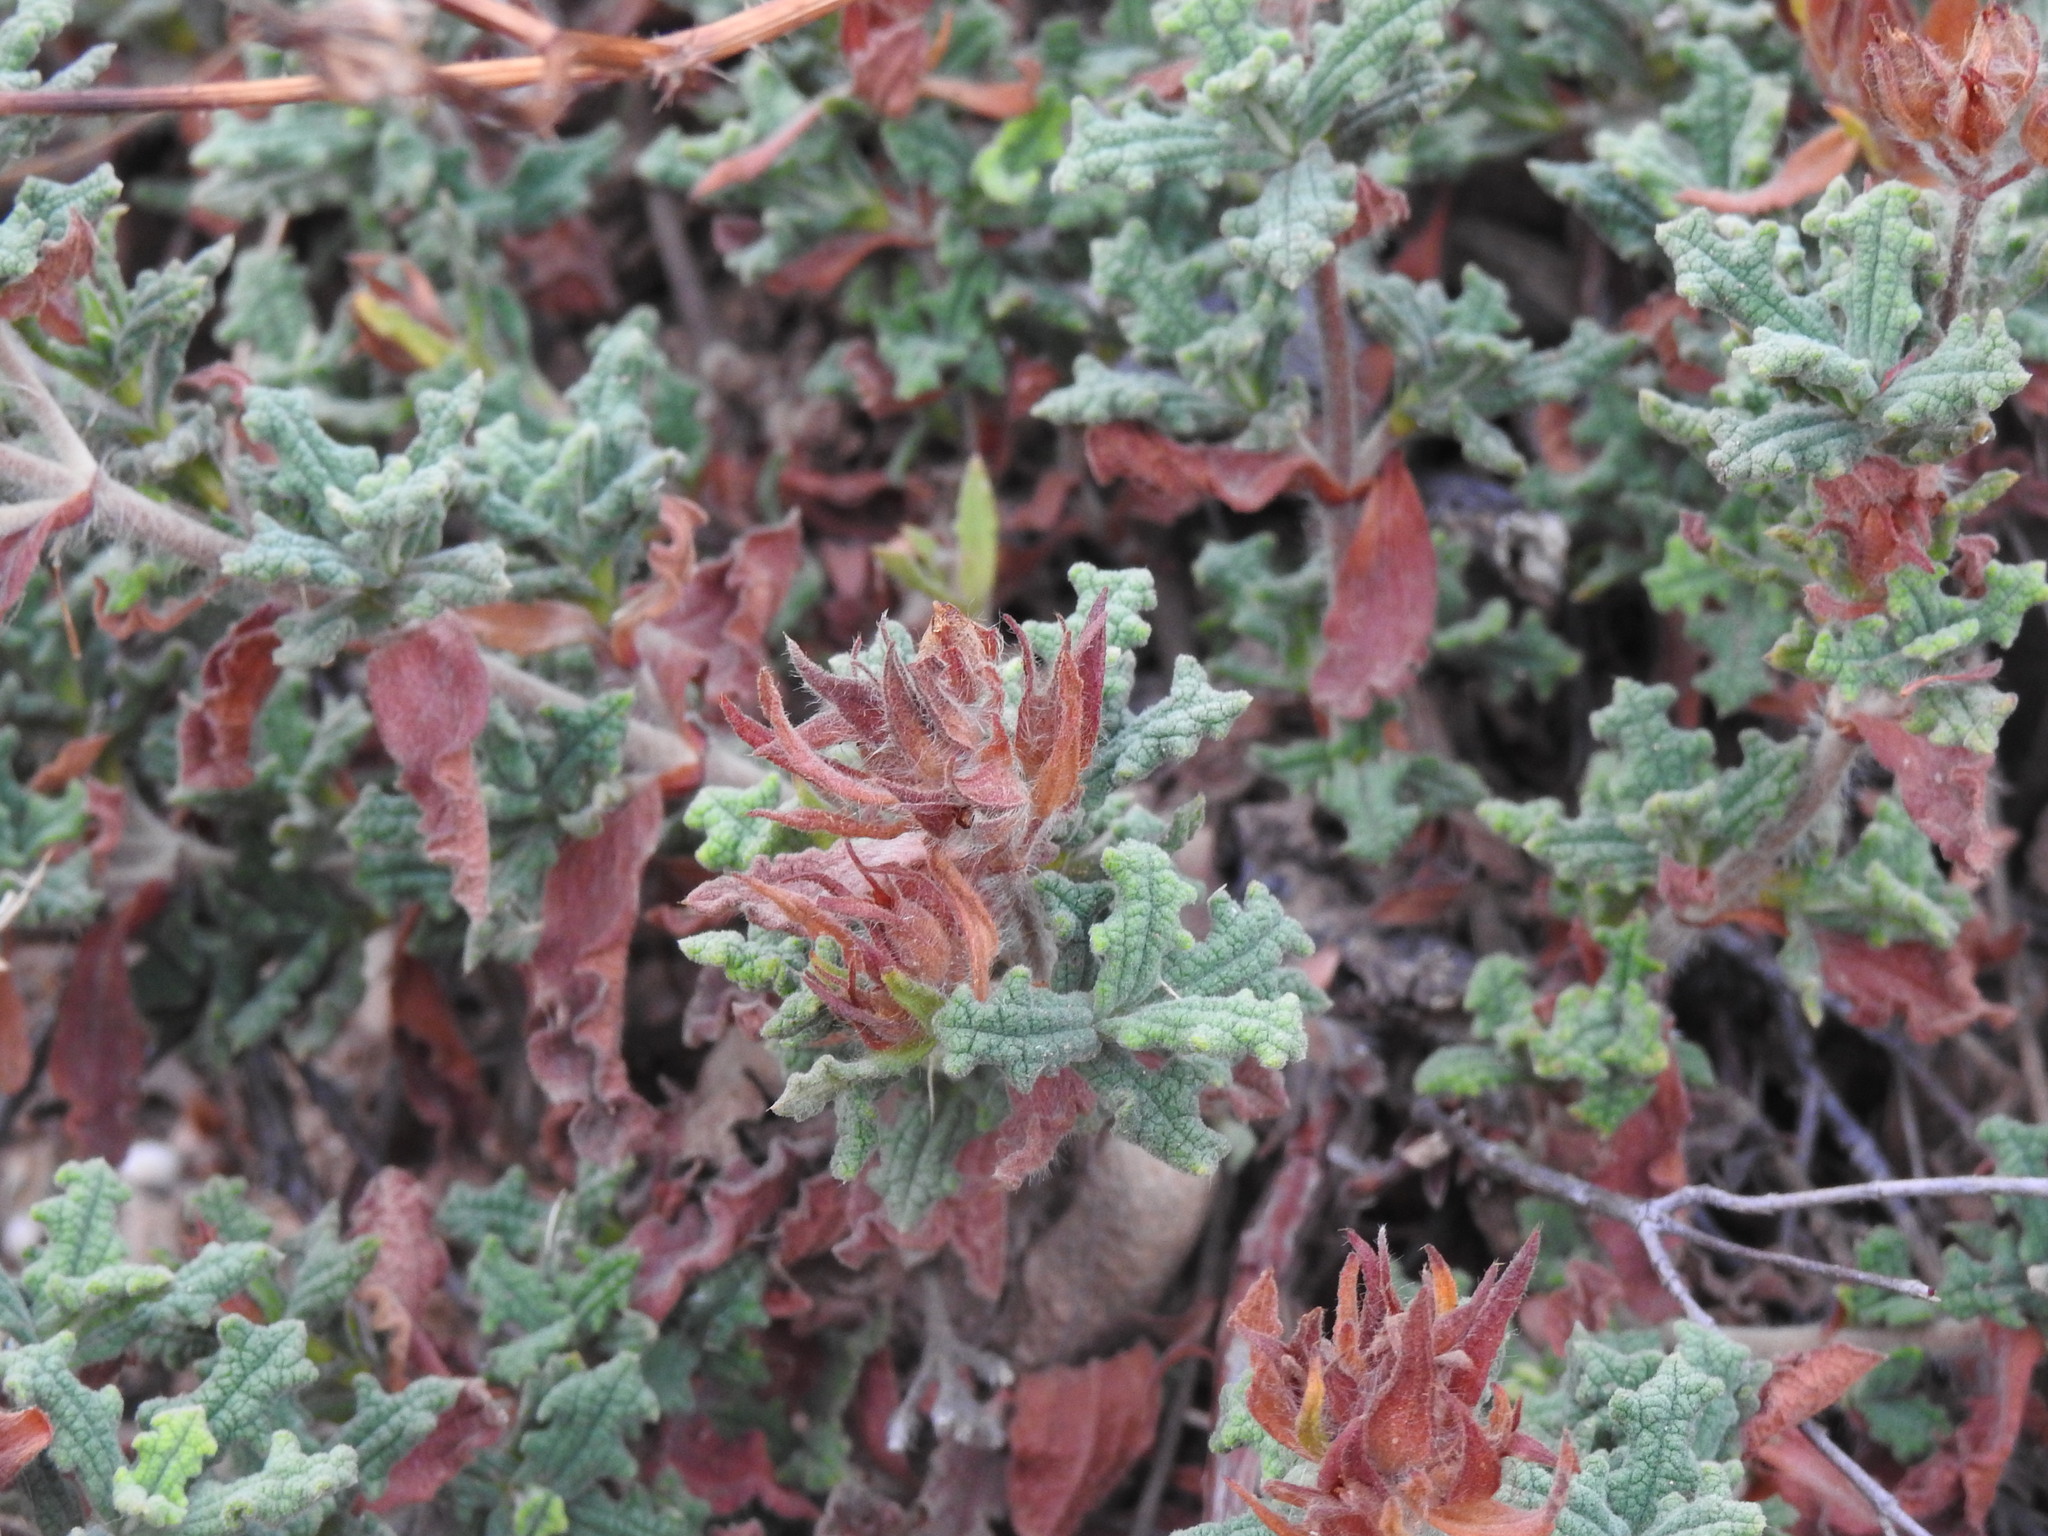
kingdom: Plantae
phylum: Tracheophyta
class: Magnoliopsida
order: Malvales
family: Cistaceae
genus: Cistus
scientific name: Cistus crispus
